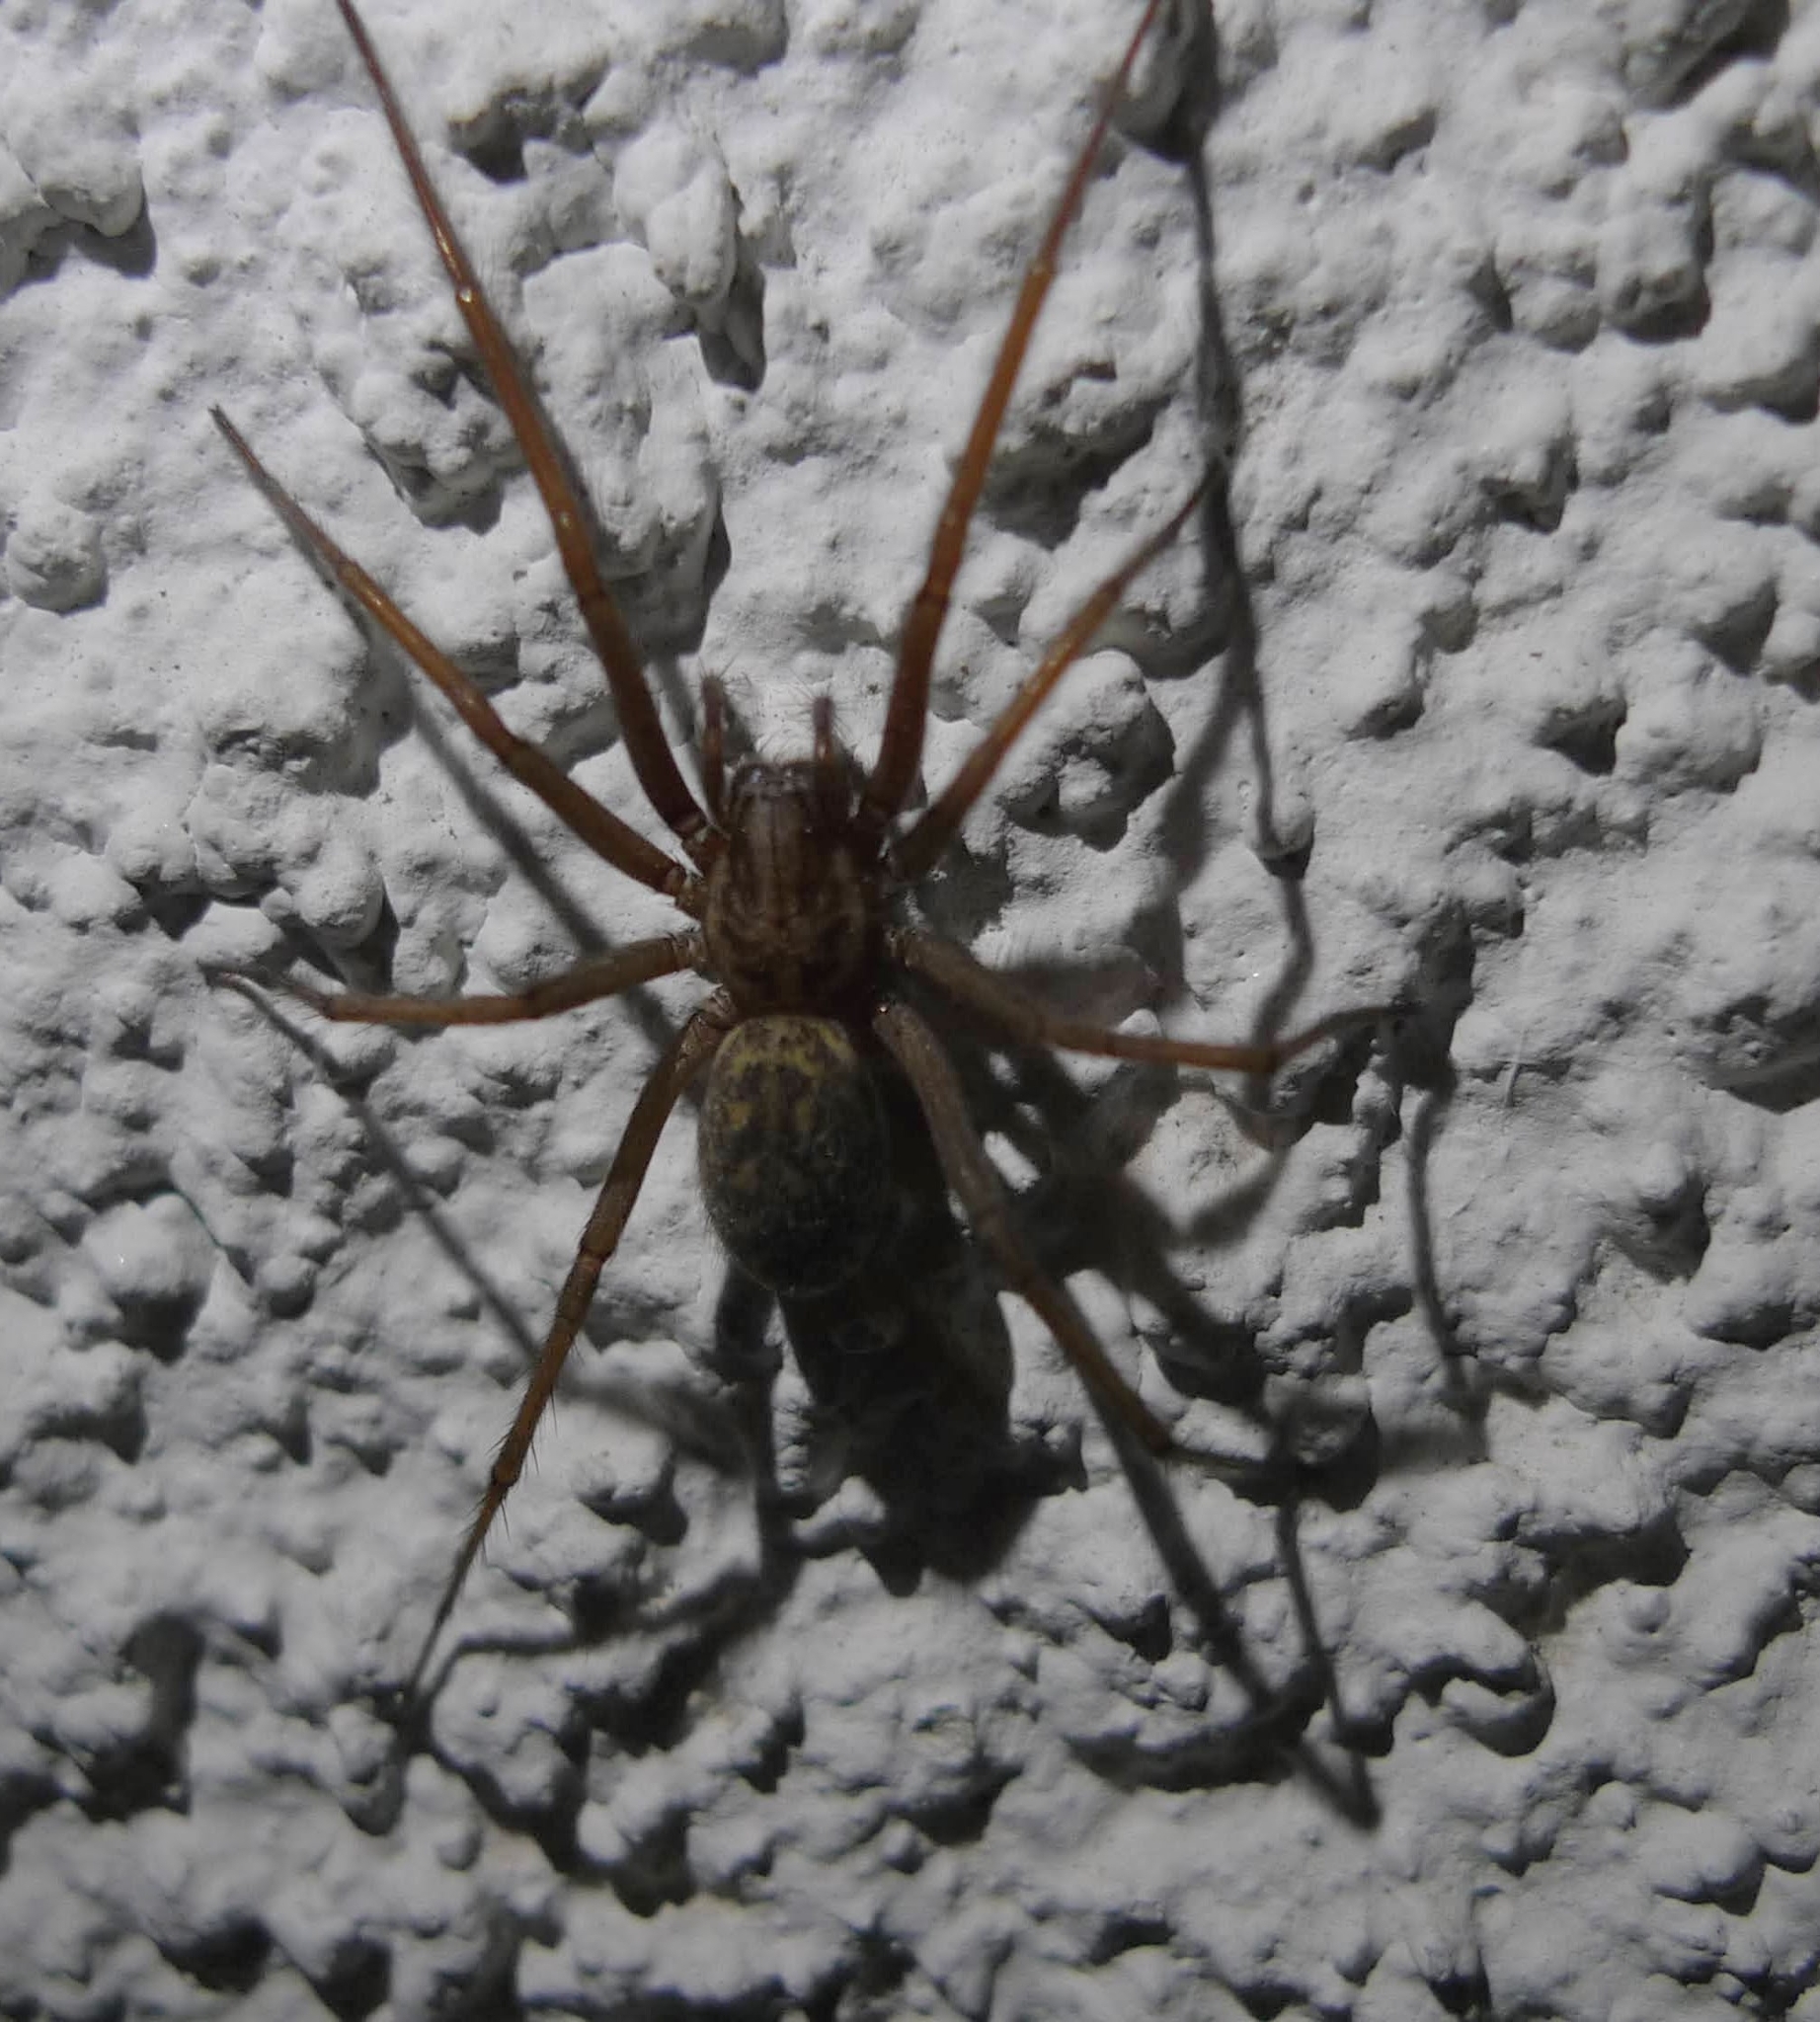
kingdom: Animalia
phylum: Arthropoda
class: Arachnida
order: Araneae
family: Agelenidae
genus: Eratigena
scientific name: Eratigena atrica
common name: Giant house spider
